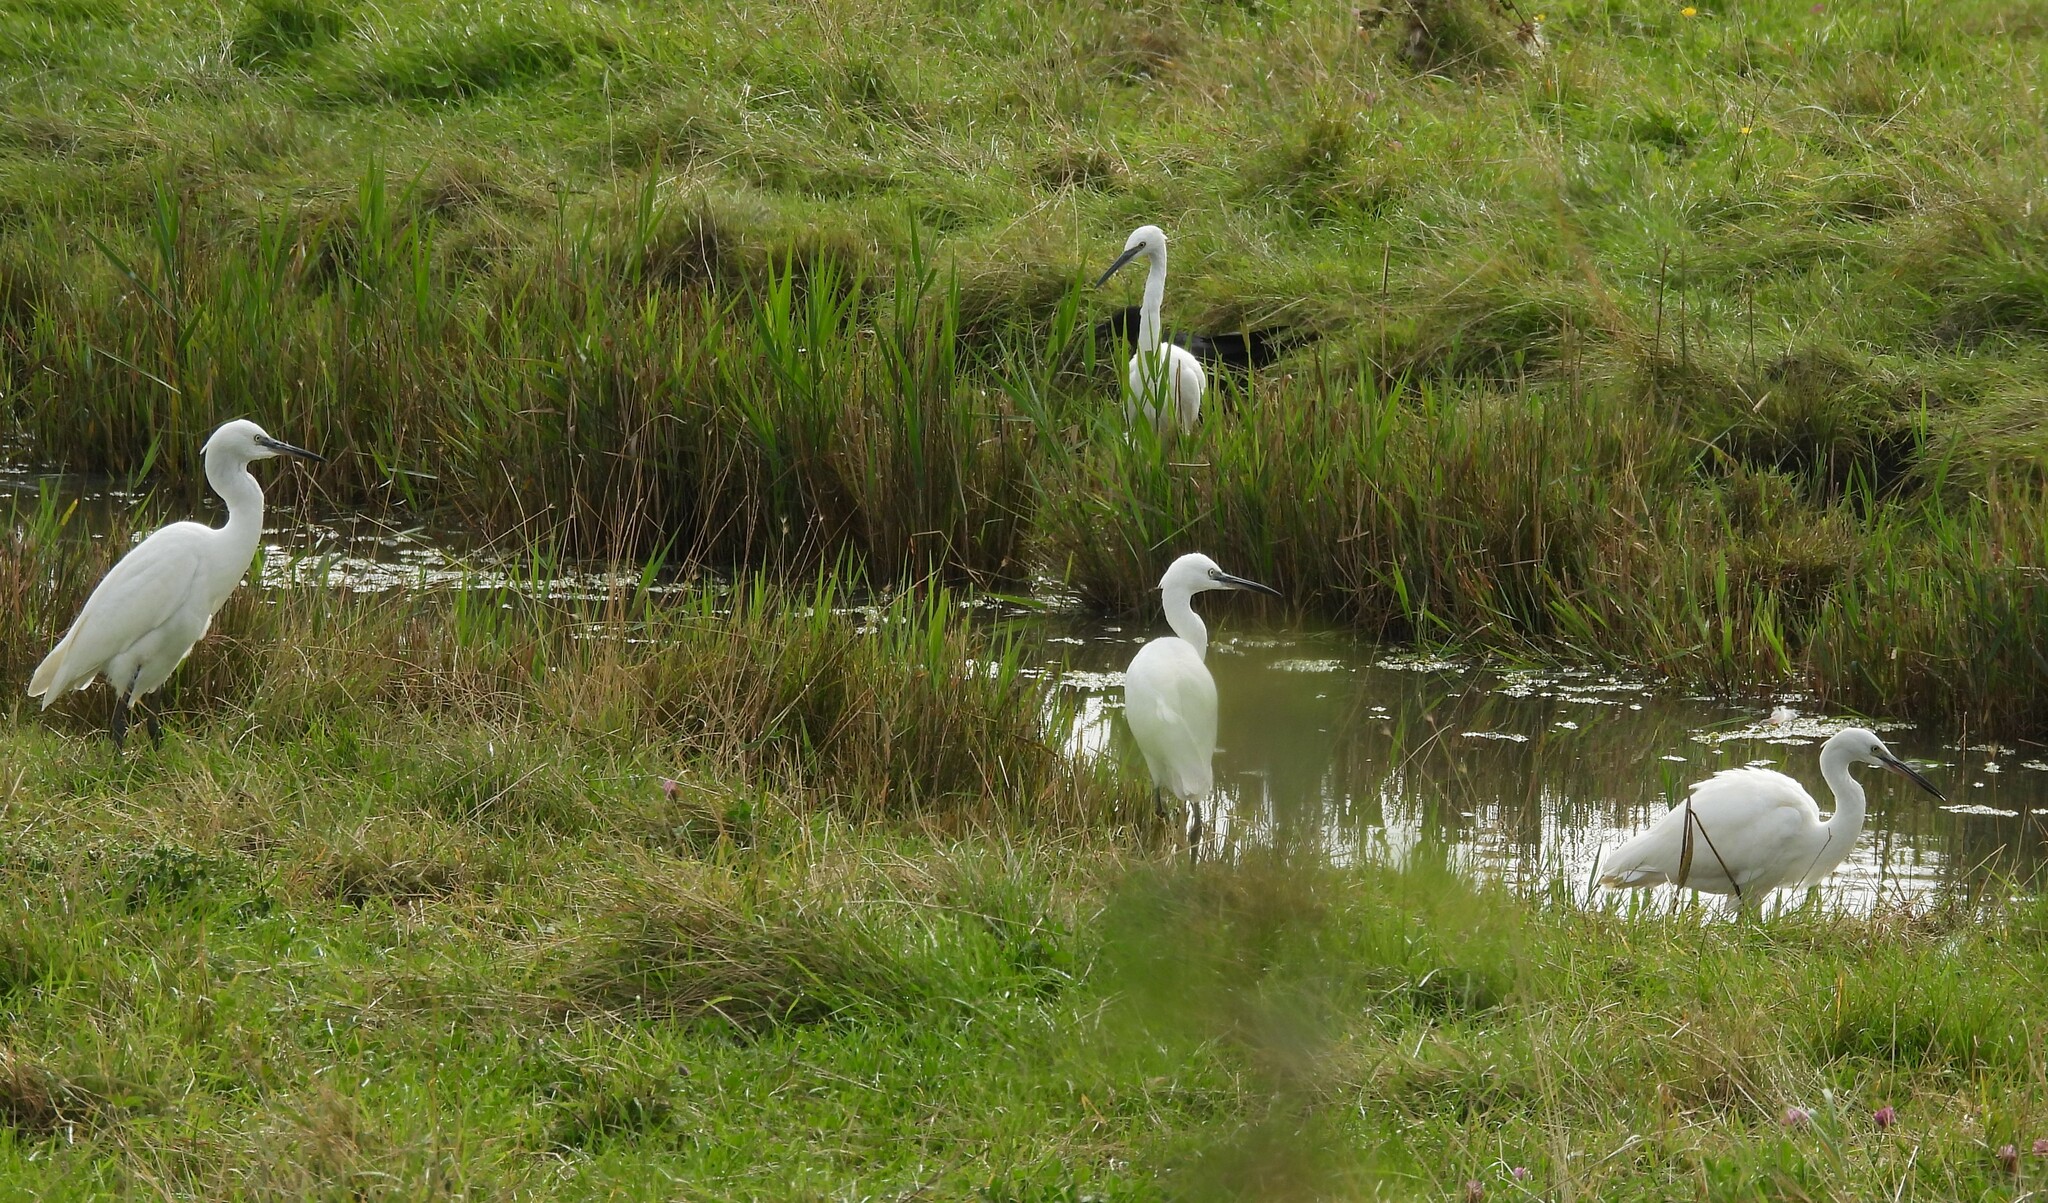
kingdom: Animalia
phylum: Chordata
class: Aves
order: Pelecaniformes
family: Ardeidae
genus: Egretta
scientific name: Egretta garzetta
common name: Little egret
